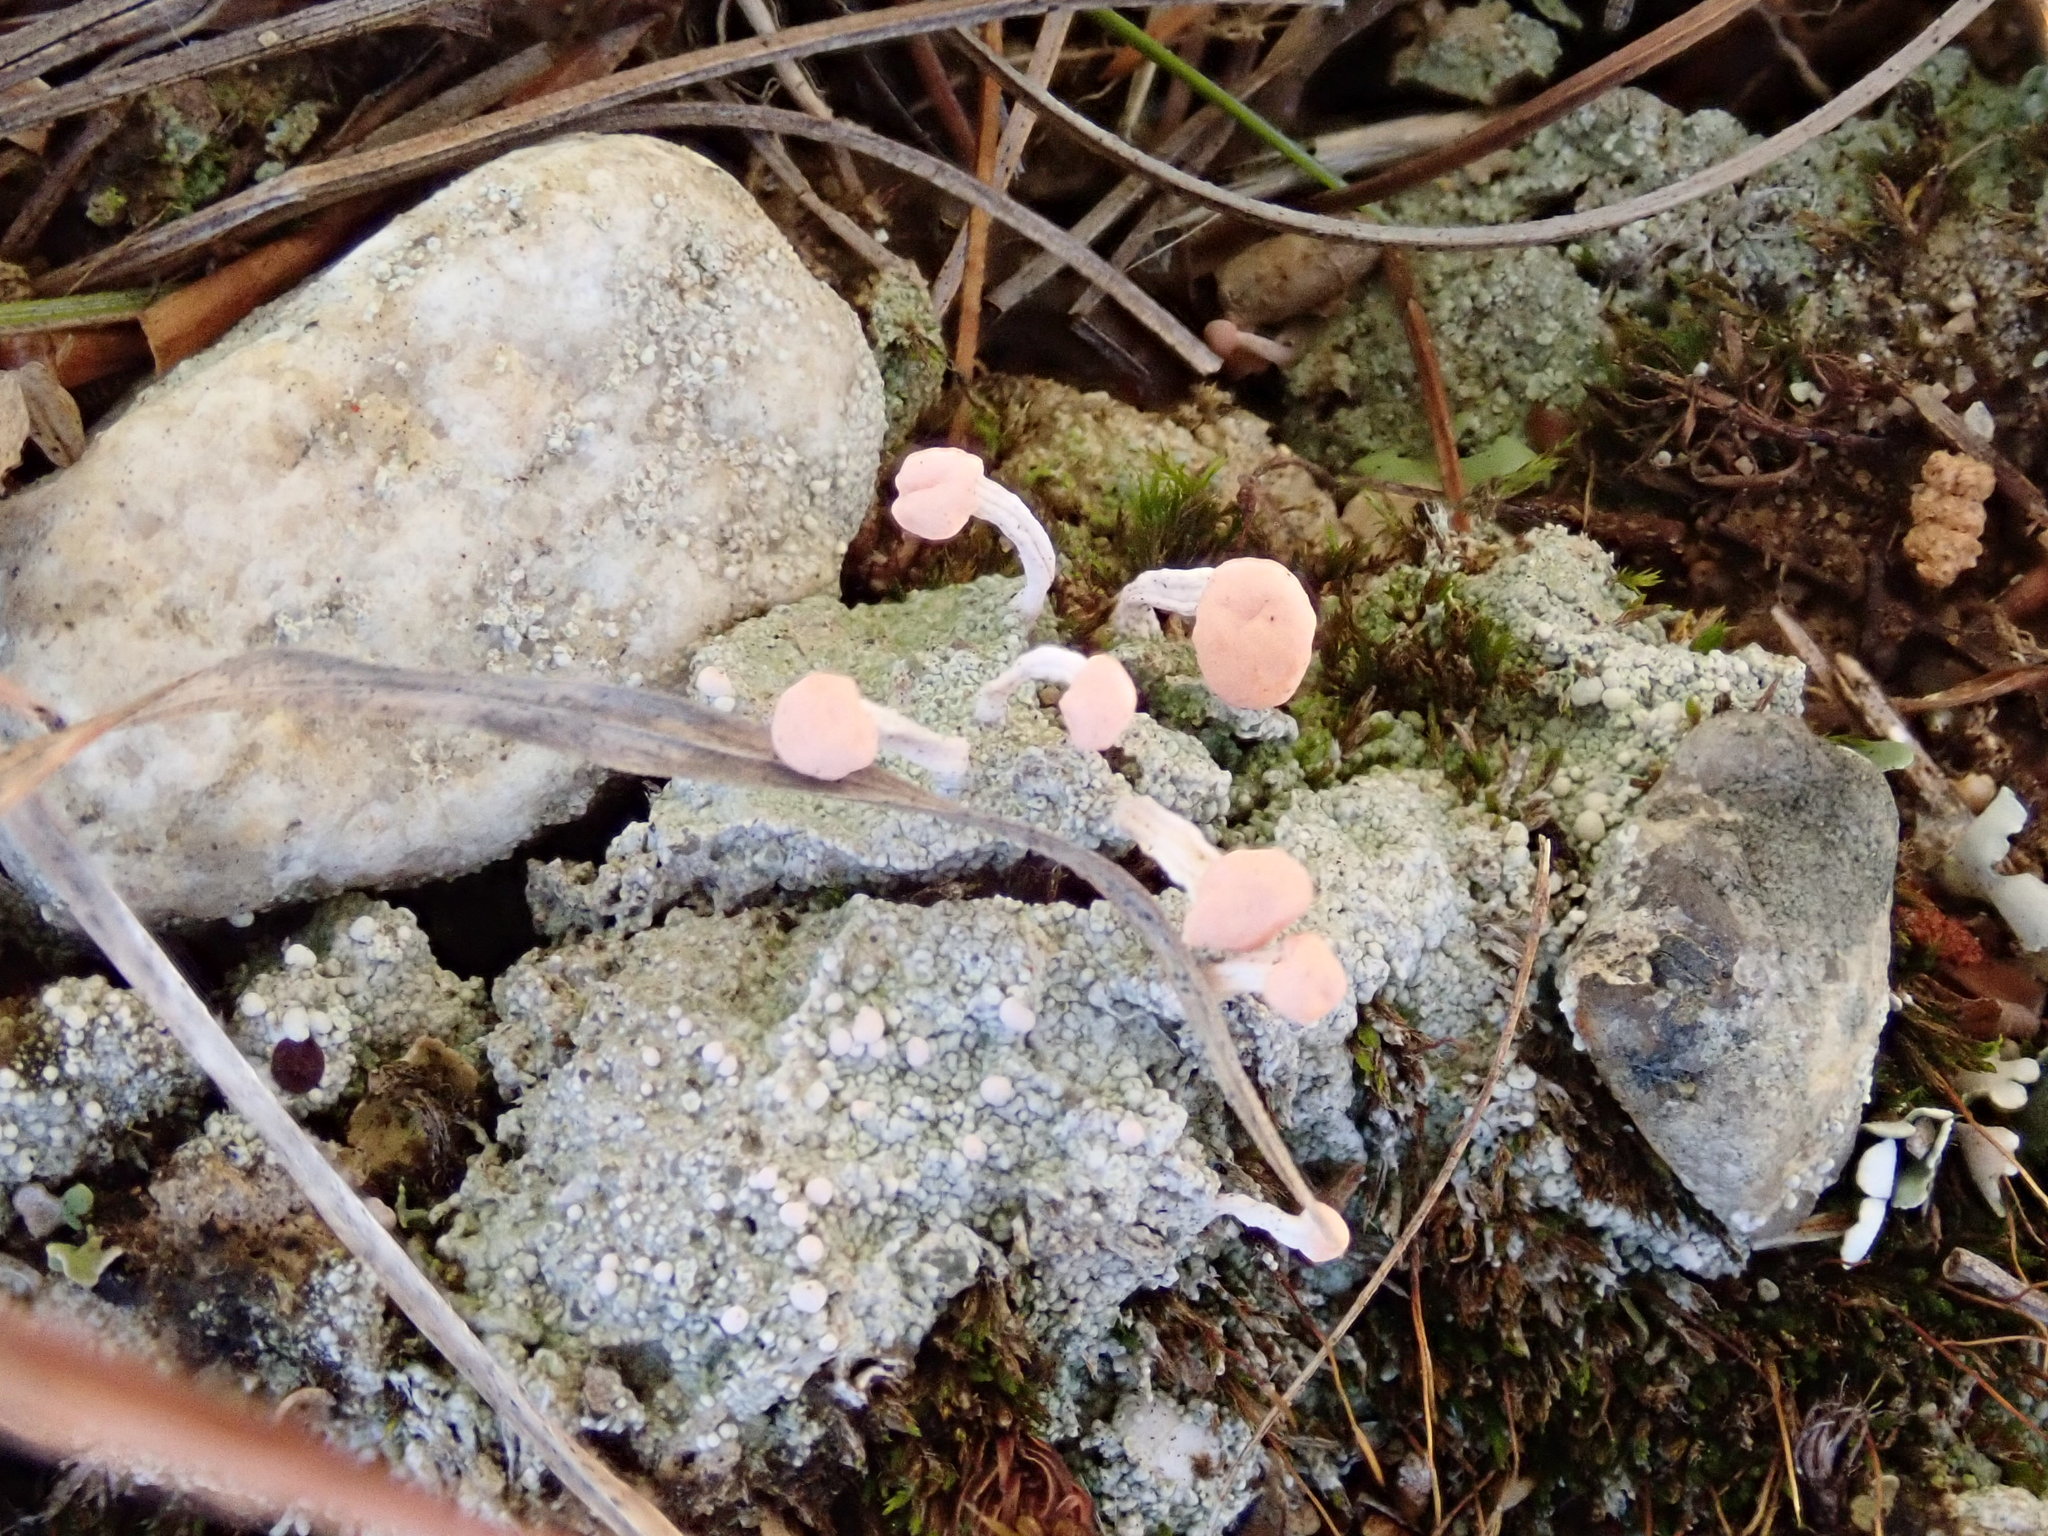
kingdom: Fungi
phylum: Ascomycota
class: Lecanoromycetes
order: Pertusariales
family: Icmadophilaceae
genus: Dibaeis
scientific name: Dibaeis baeomyces
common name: Pink earth lichen
